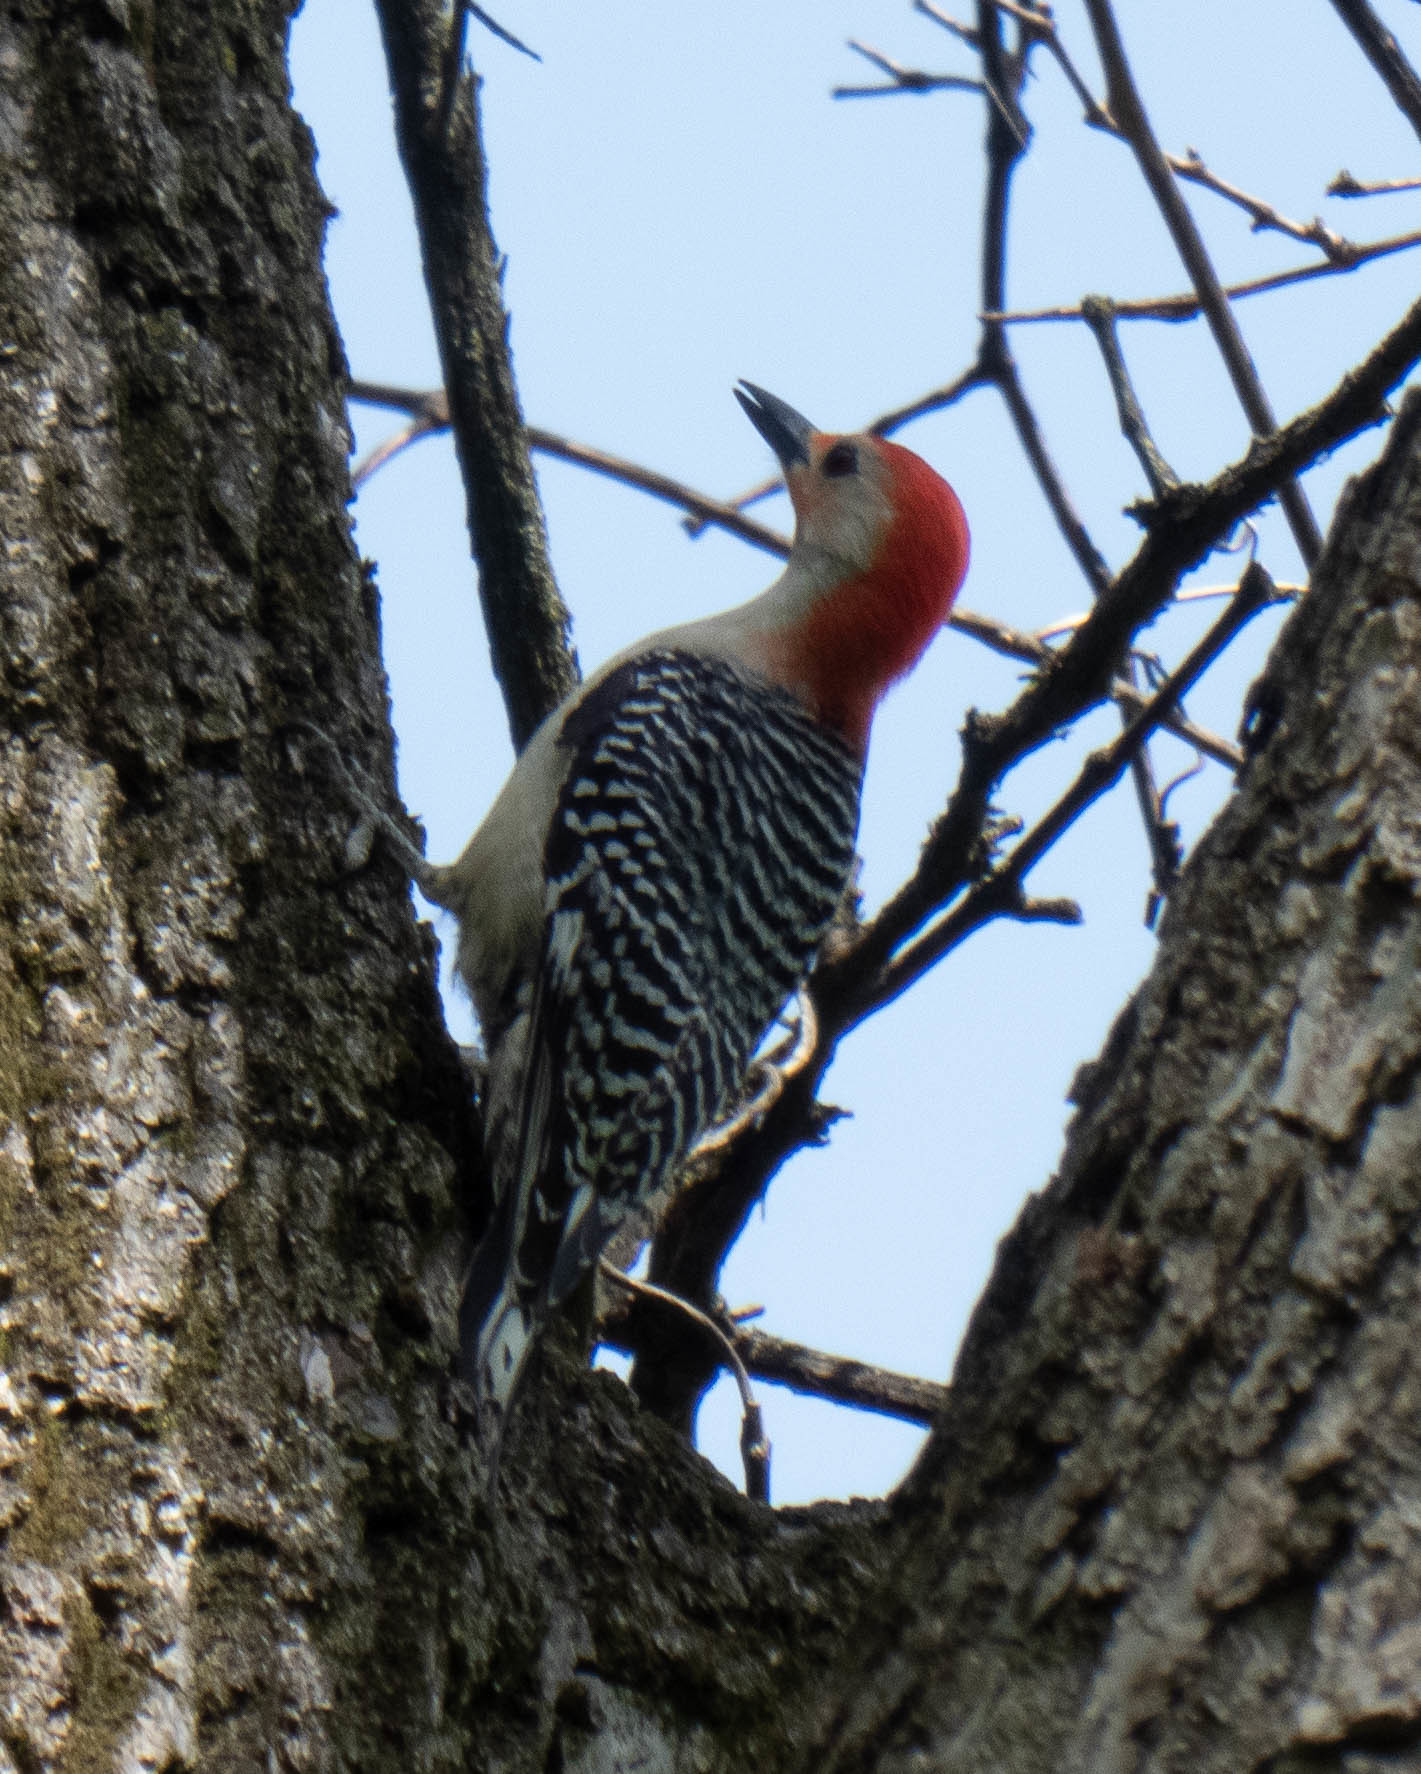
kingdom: Animalia
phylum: Chordata
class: Aves
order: Piciformes
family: Picidae
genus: Melanerpes
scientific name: Melanerpes carolinus
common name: Red-bellied woodpecker
